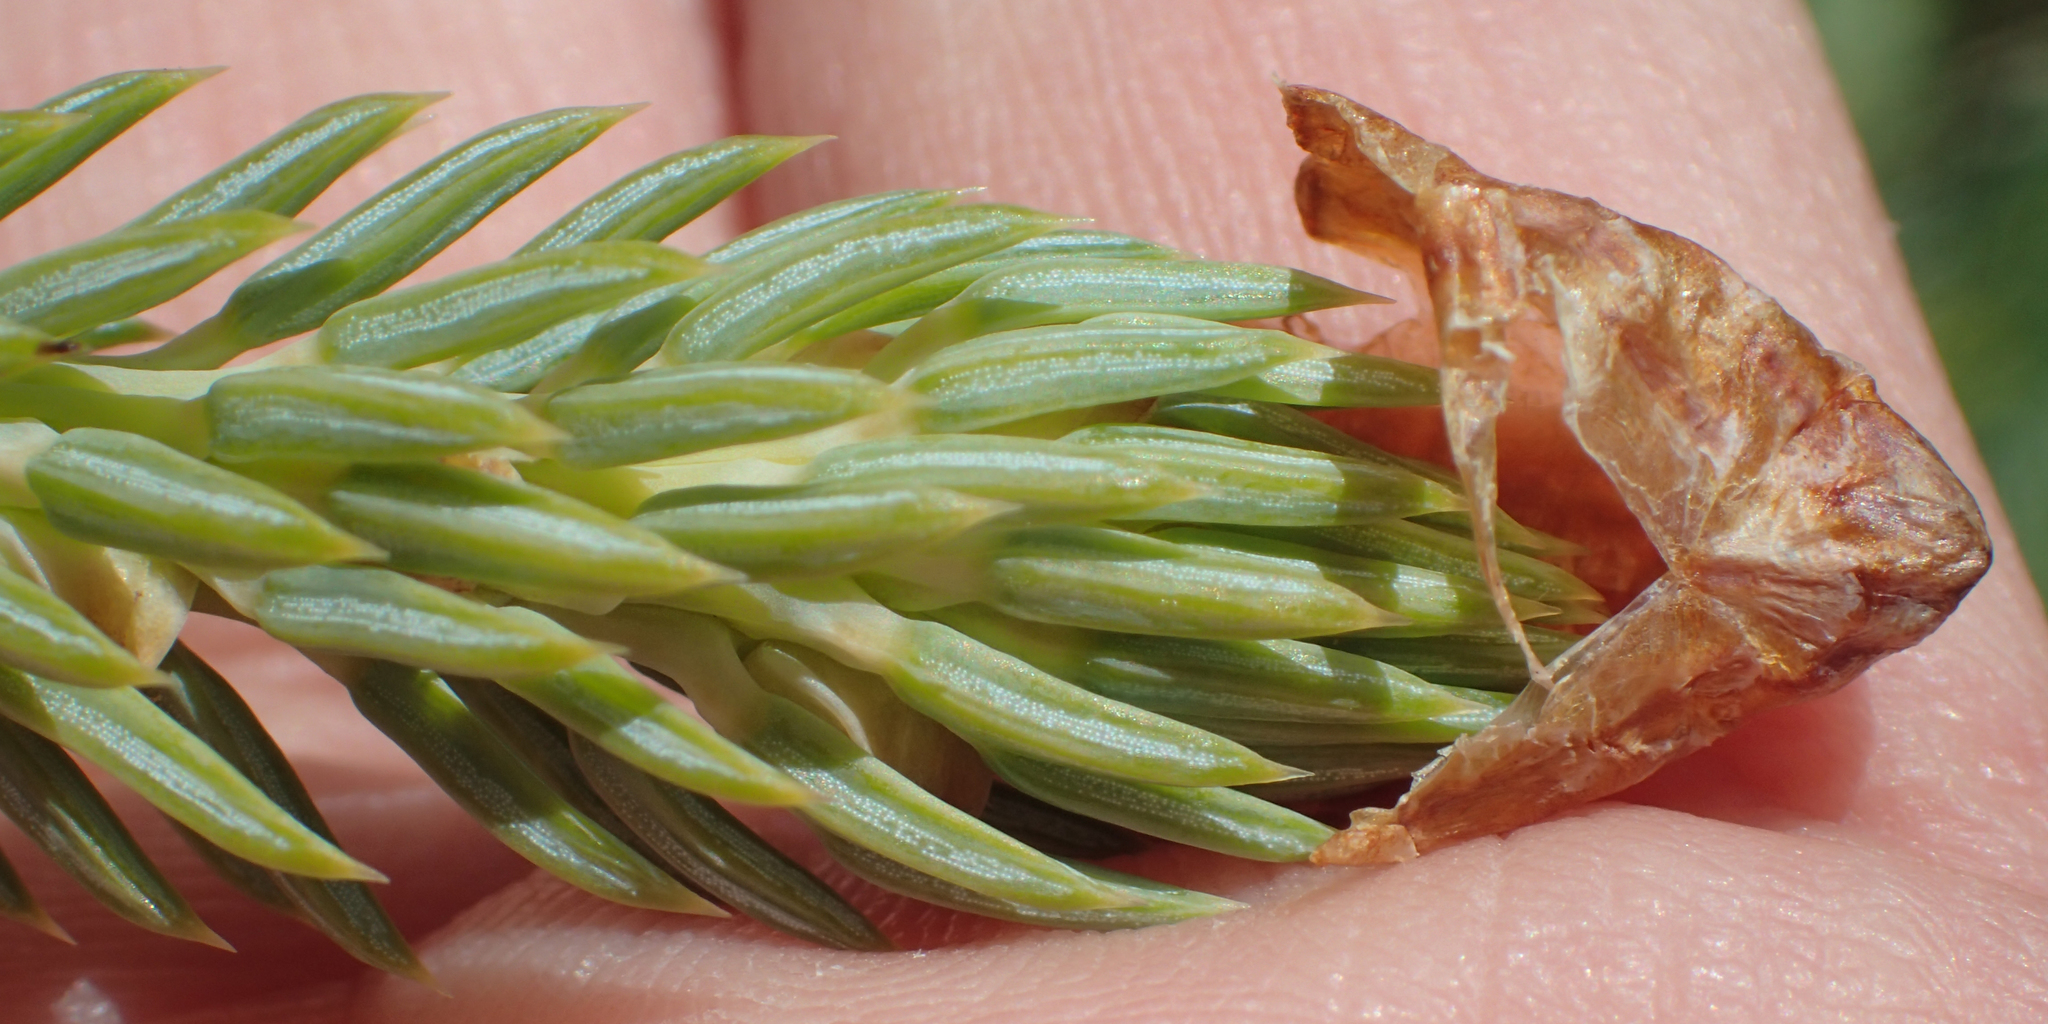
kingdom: Plantae
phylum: Tracheophyta
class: Pinopsida
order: Pinales
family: Pinaceae
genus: Picea
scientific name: Picea glauca
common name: White spruce
